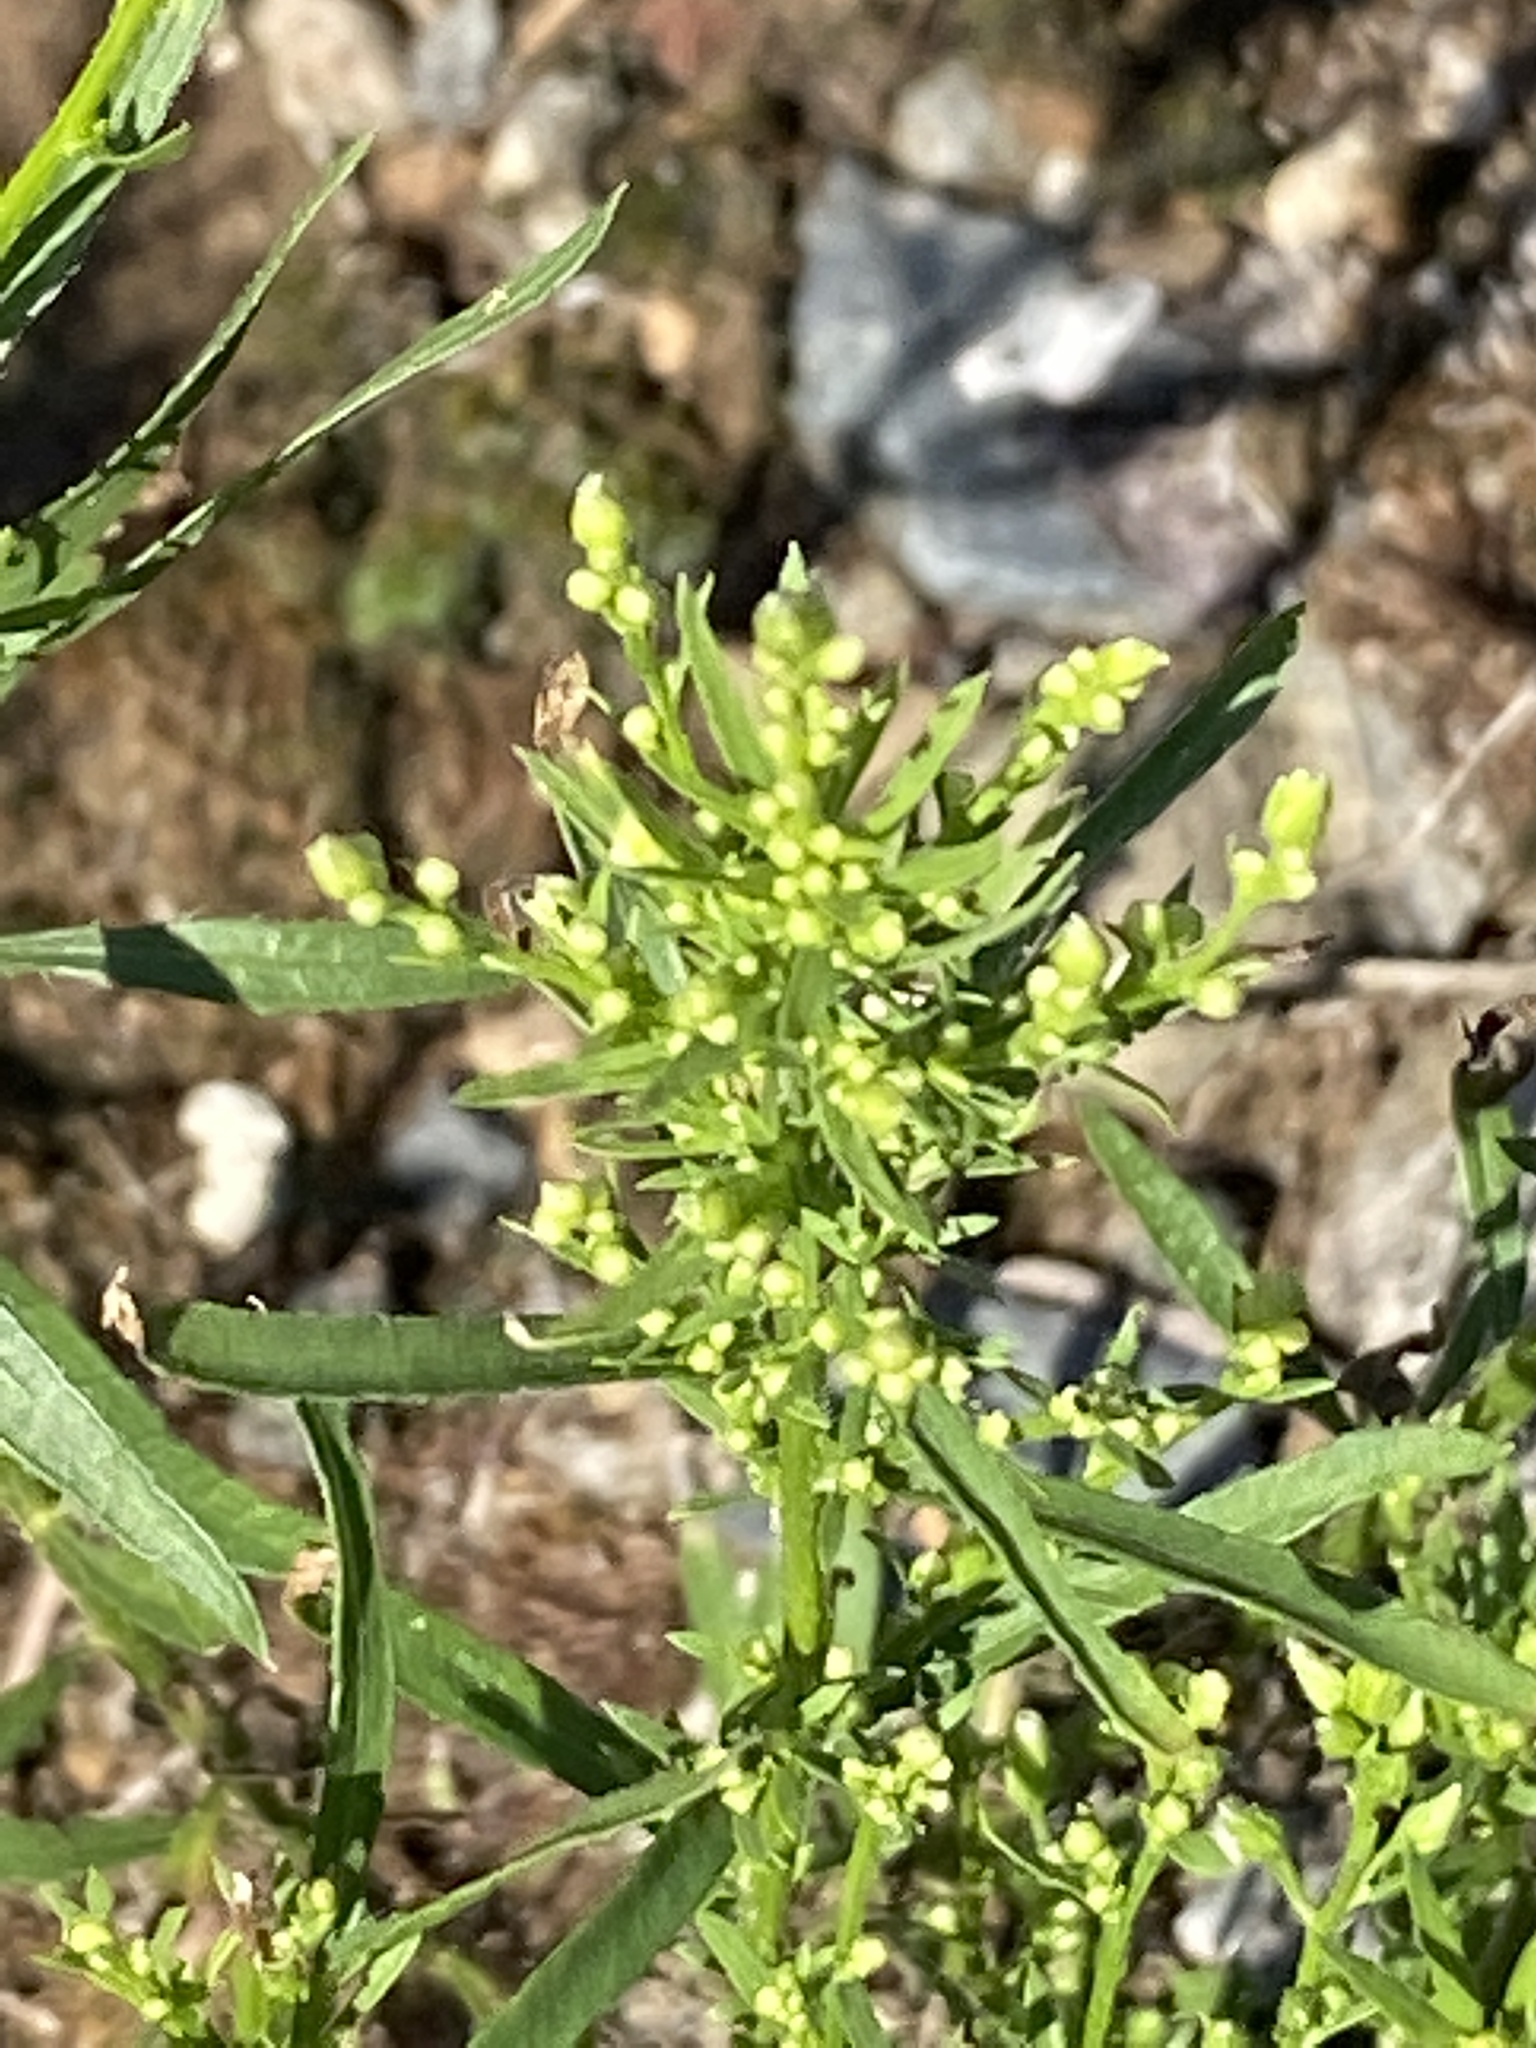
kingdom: Plantae
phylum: Tracheophyta
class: Magnoliopsida
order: Asterales
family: Asteraceae
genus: Erigeron
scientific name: Erigeron canadensis
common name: Canadian fleabane
